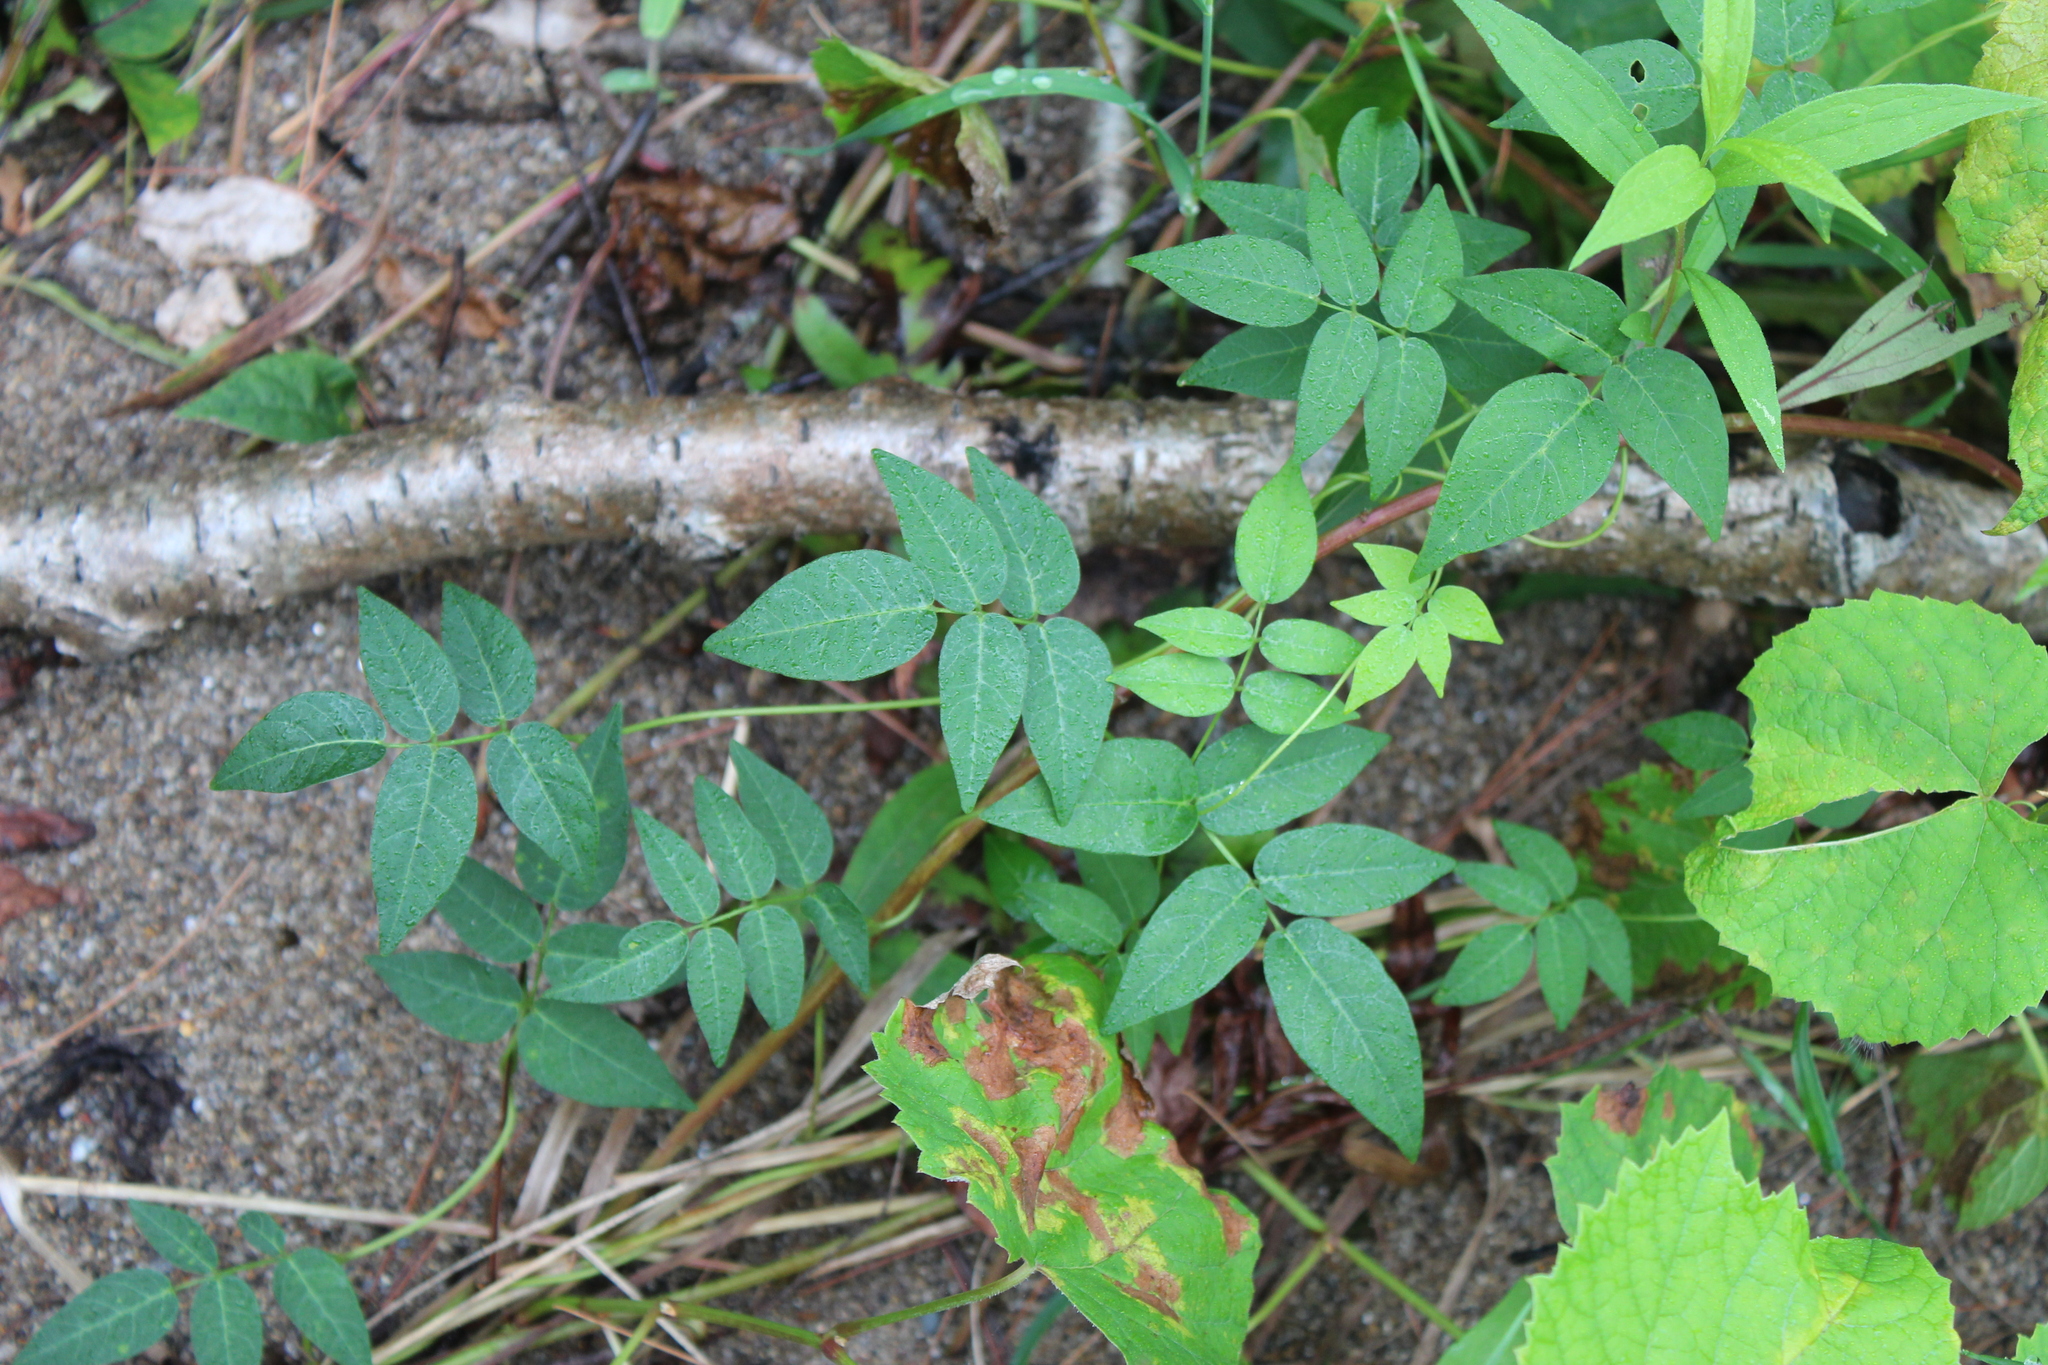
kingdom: Plantae
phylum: Tracheophyta
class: Magnoliopsida
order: Fabales
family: Fabaceae
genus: Apios
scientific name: Apios americana
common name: American potato-bean
